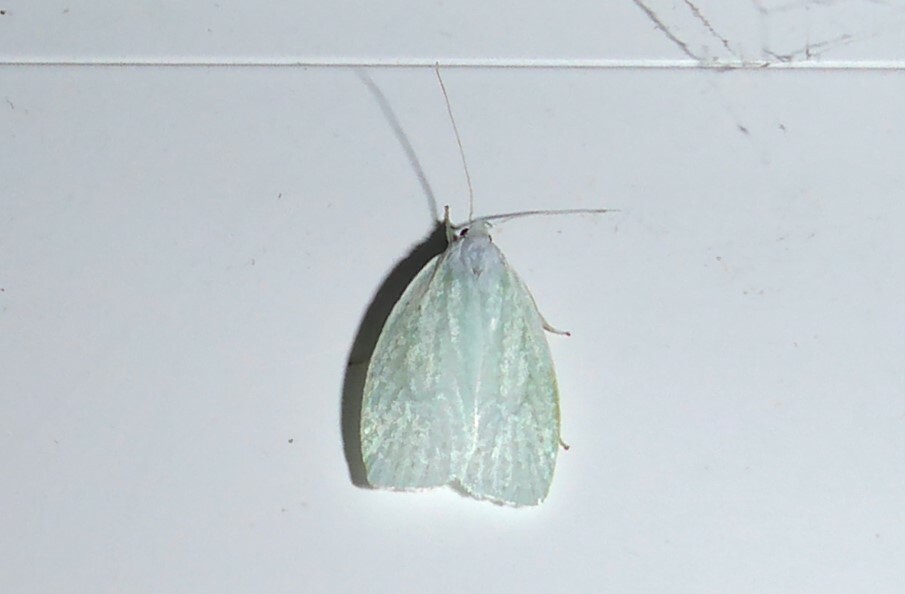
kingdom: Animalia
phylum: Arthropoda
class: Insecta
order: Lepidoptera
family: Oecophoridae
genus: Nymphostola
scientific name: Nymphostola galactina
